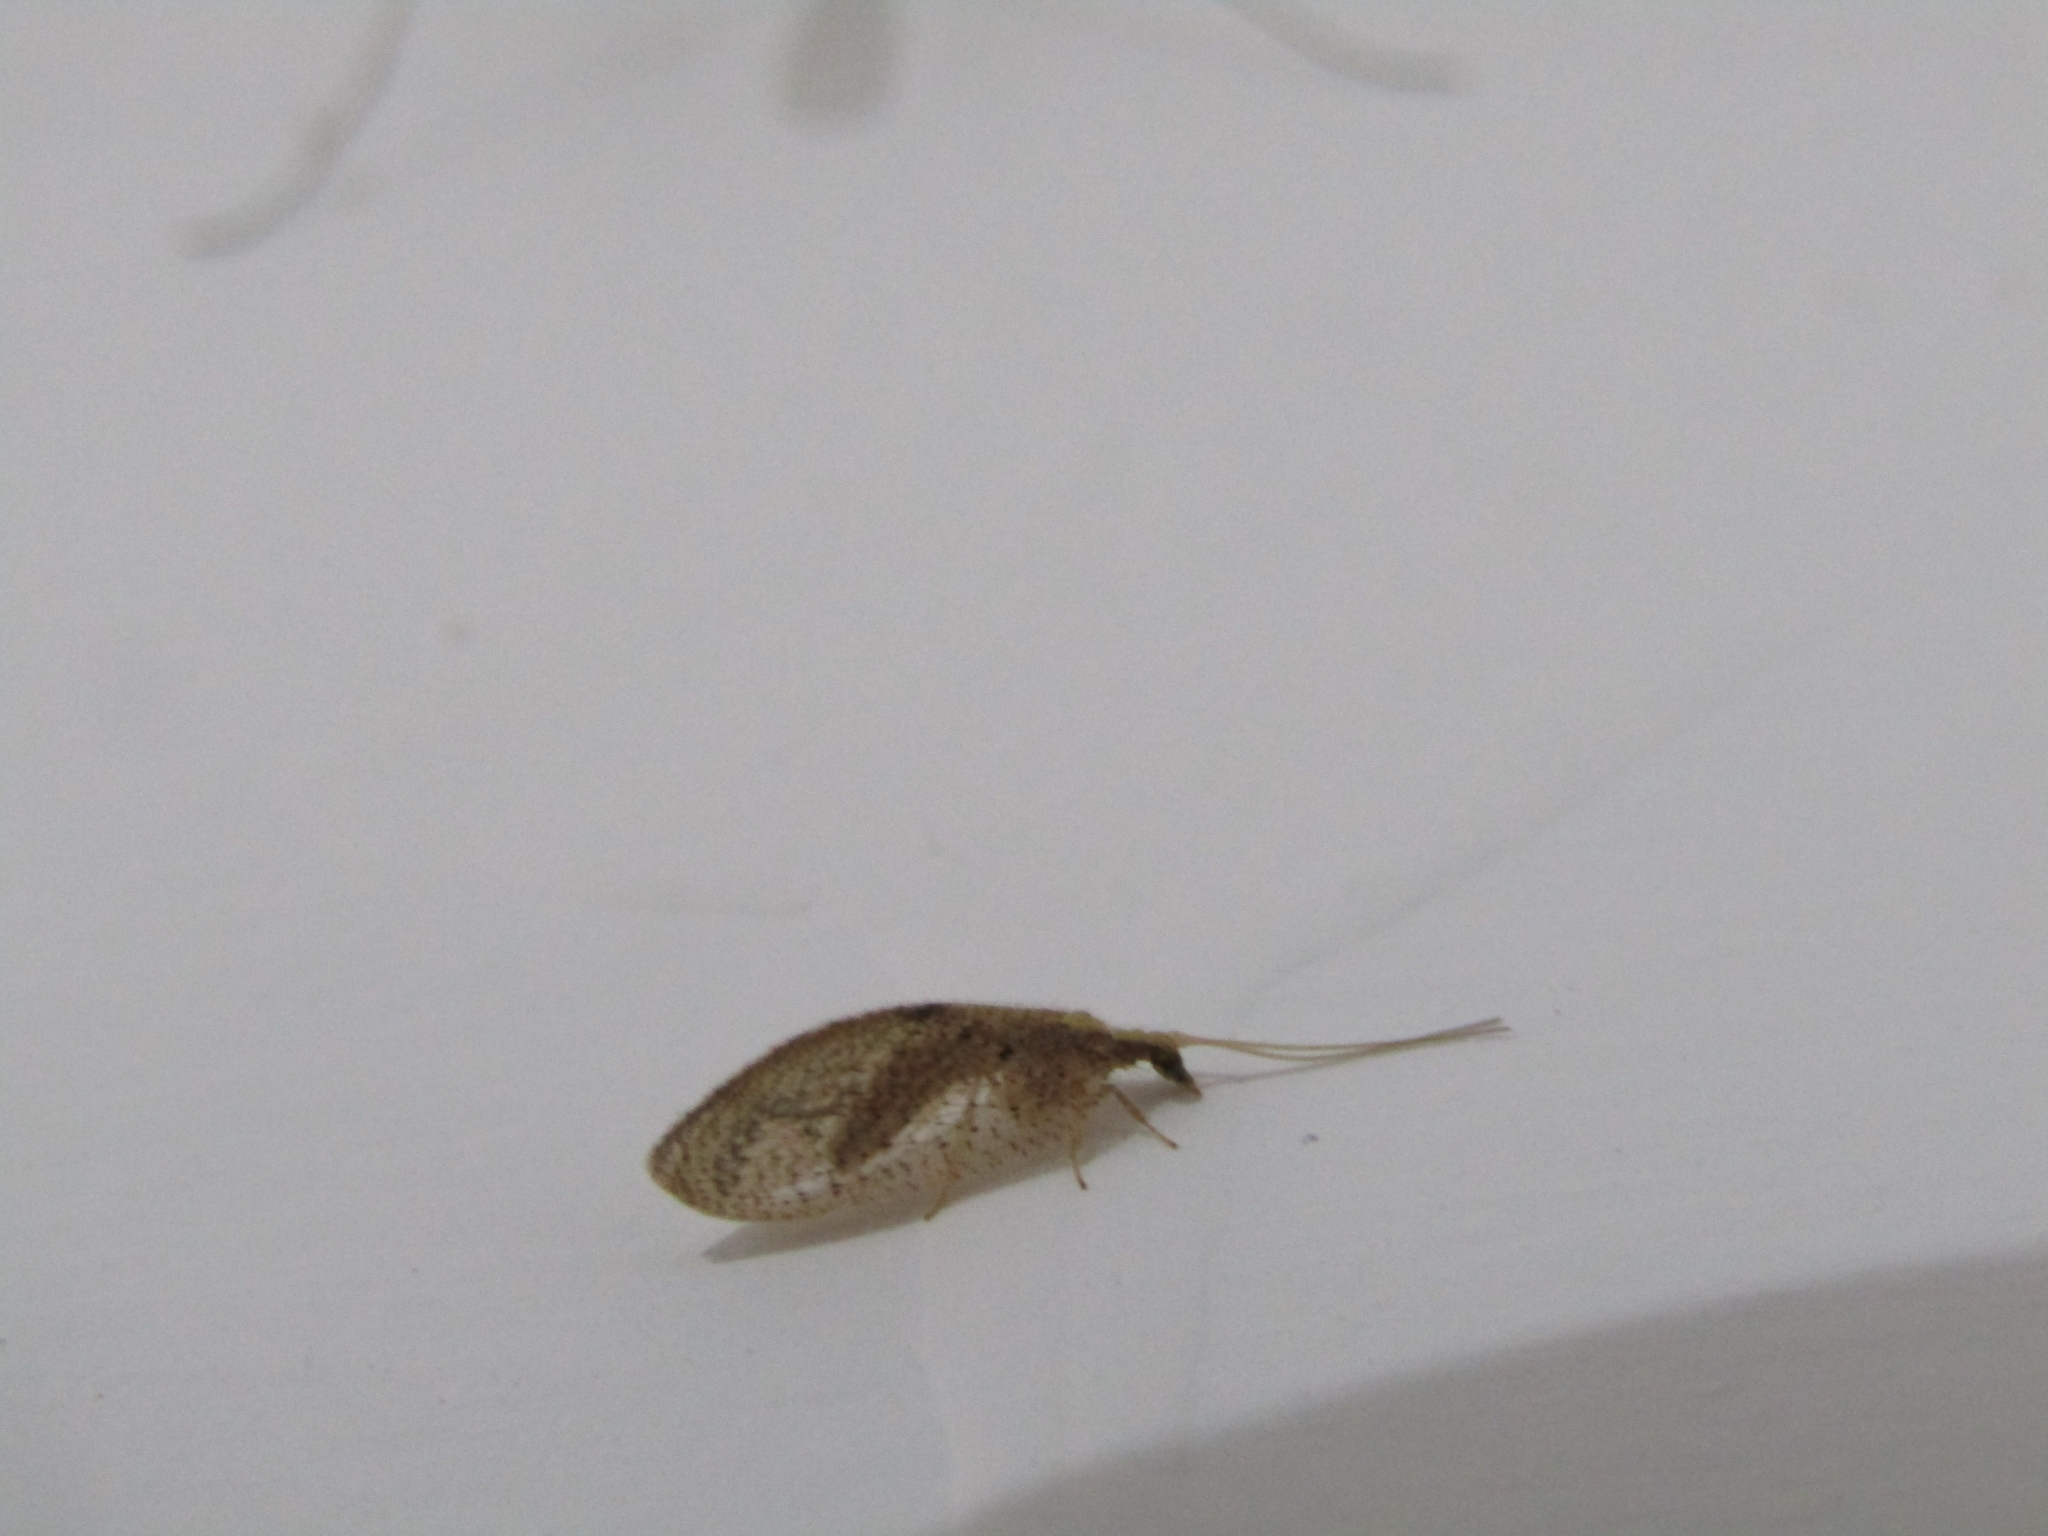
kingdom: Animalia
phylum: Arthropoda
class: Insecta
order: Neuroptera
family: Hemerobiidae
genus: Hemerobius
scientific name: Hemerobius bolivari
